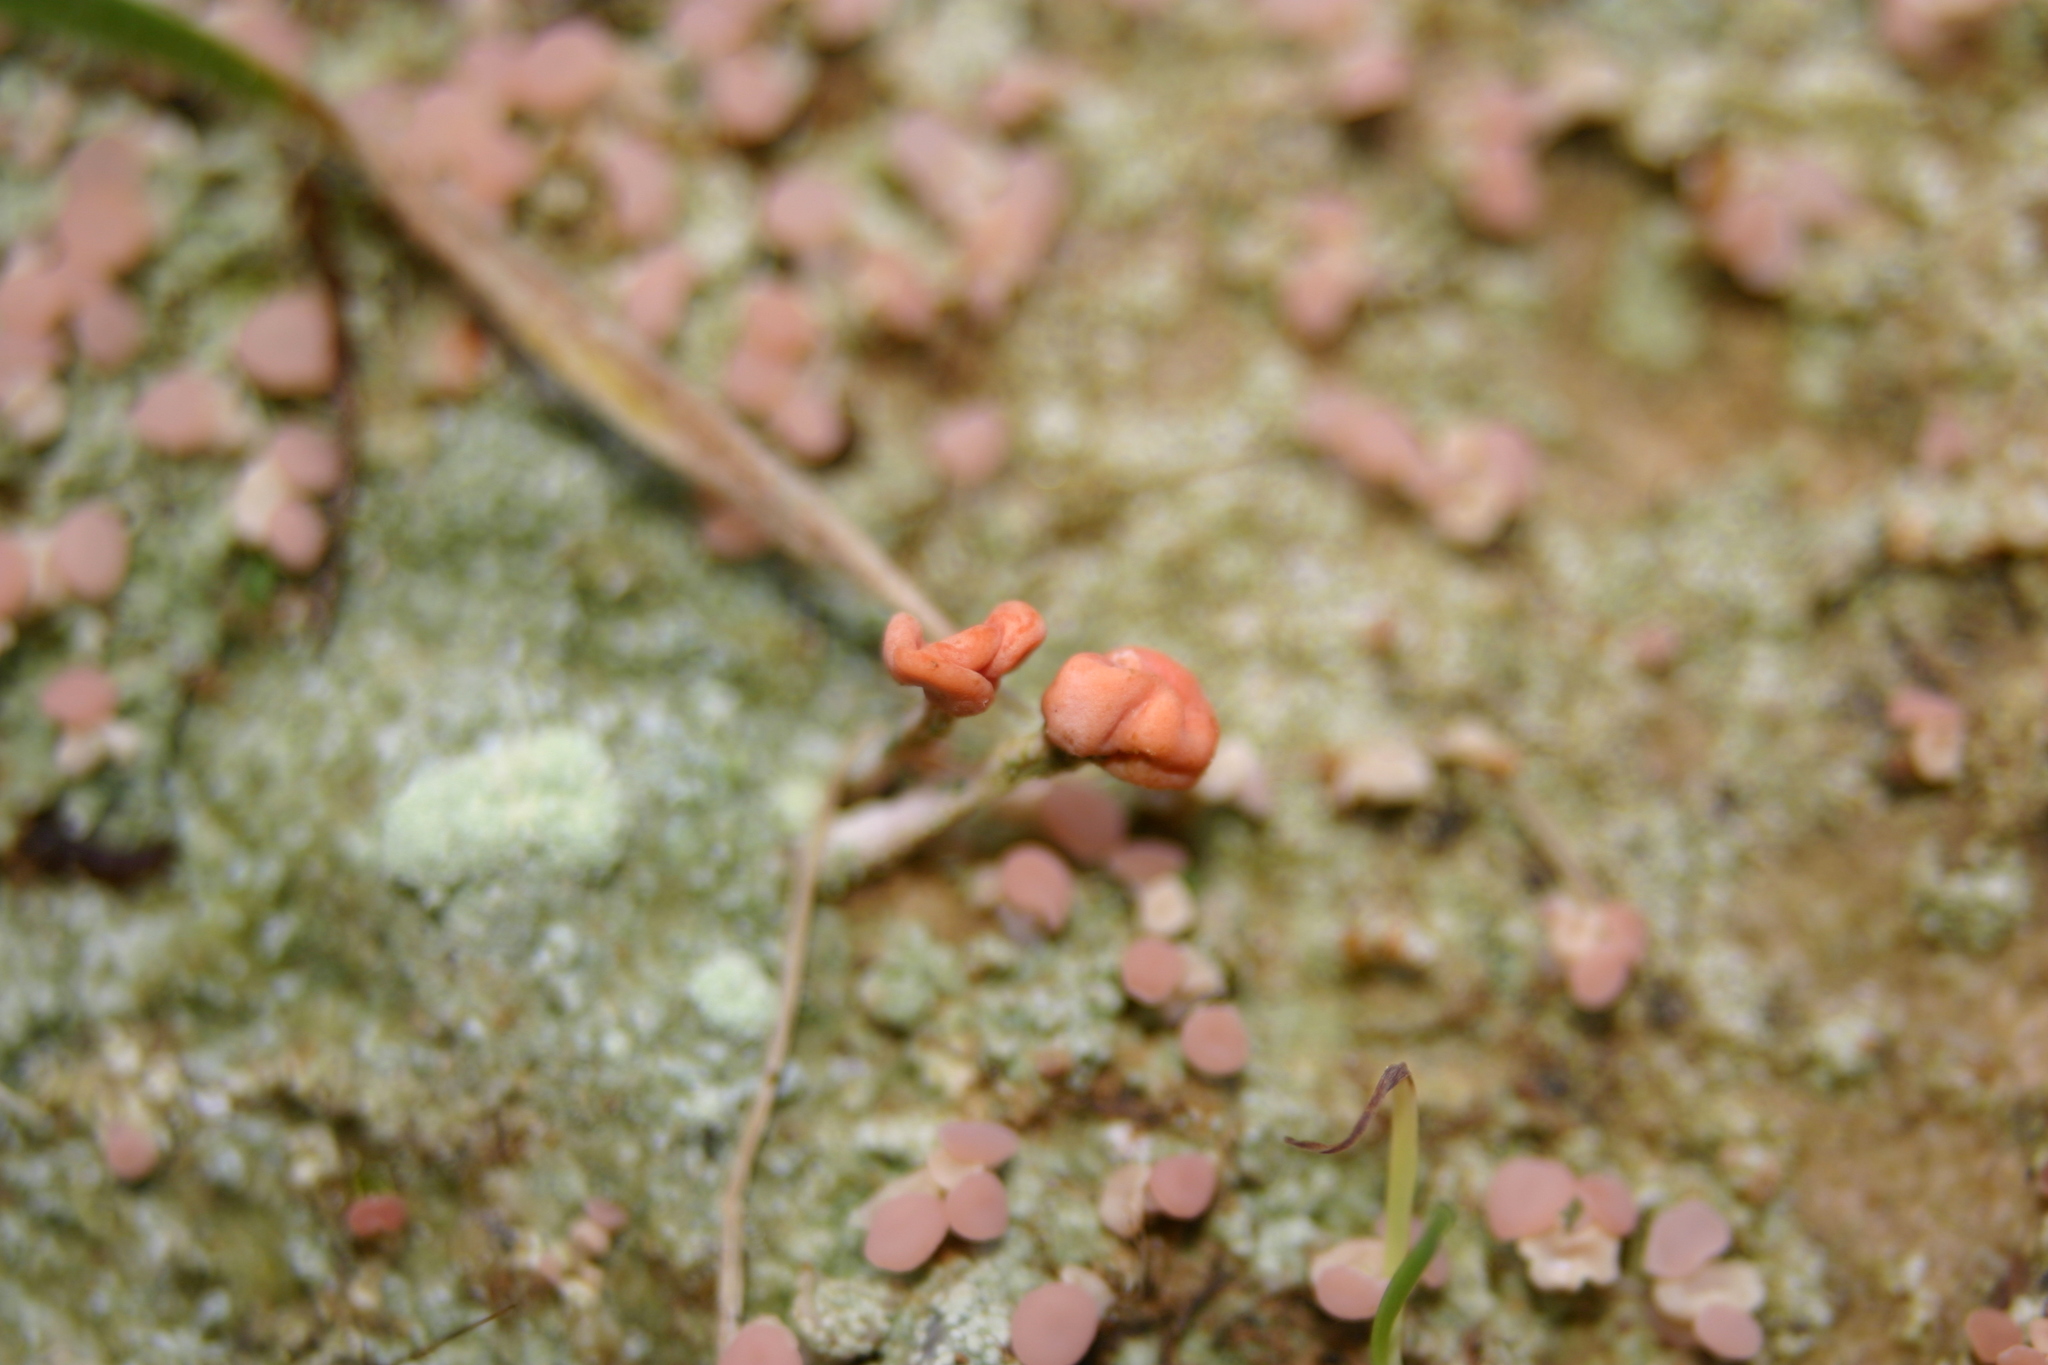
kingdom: Fungi
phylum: Ascomycota
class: Lecanoromycetes
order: Pertusariales
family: Icmadophilaceae
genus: Dibaeis
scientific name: Dibaeis arcuata
